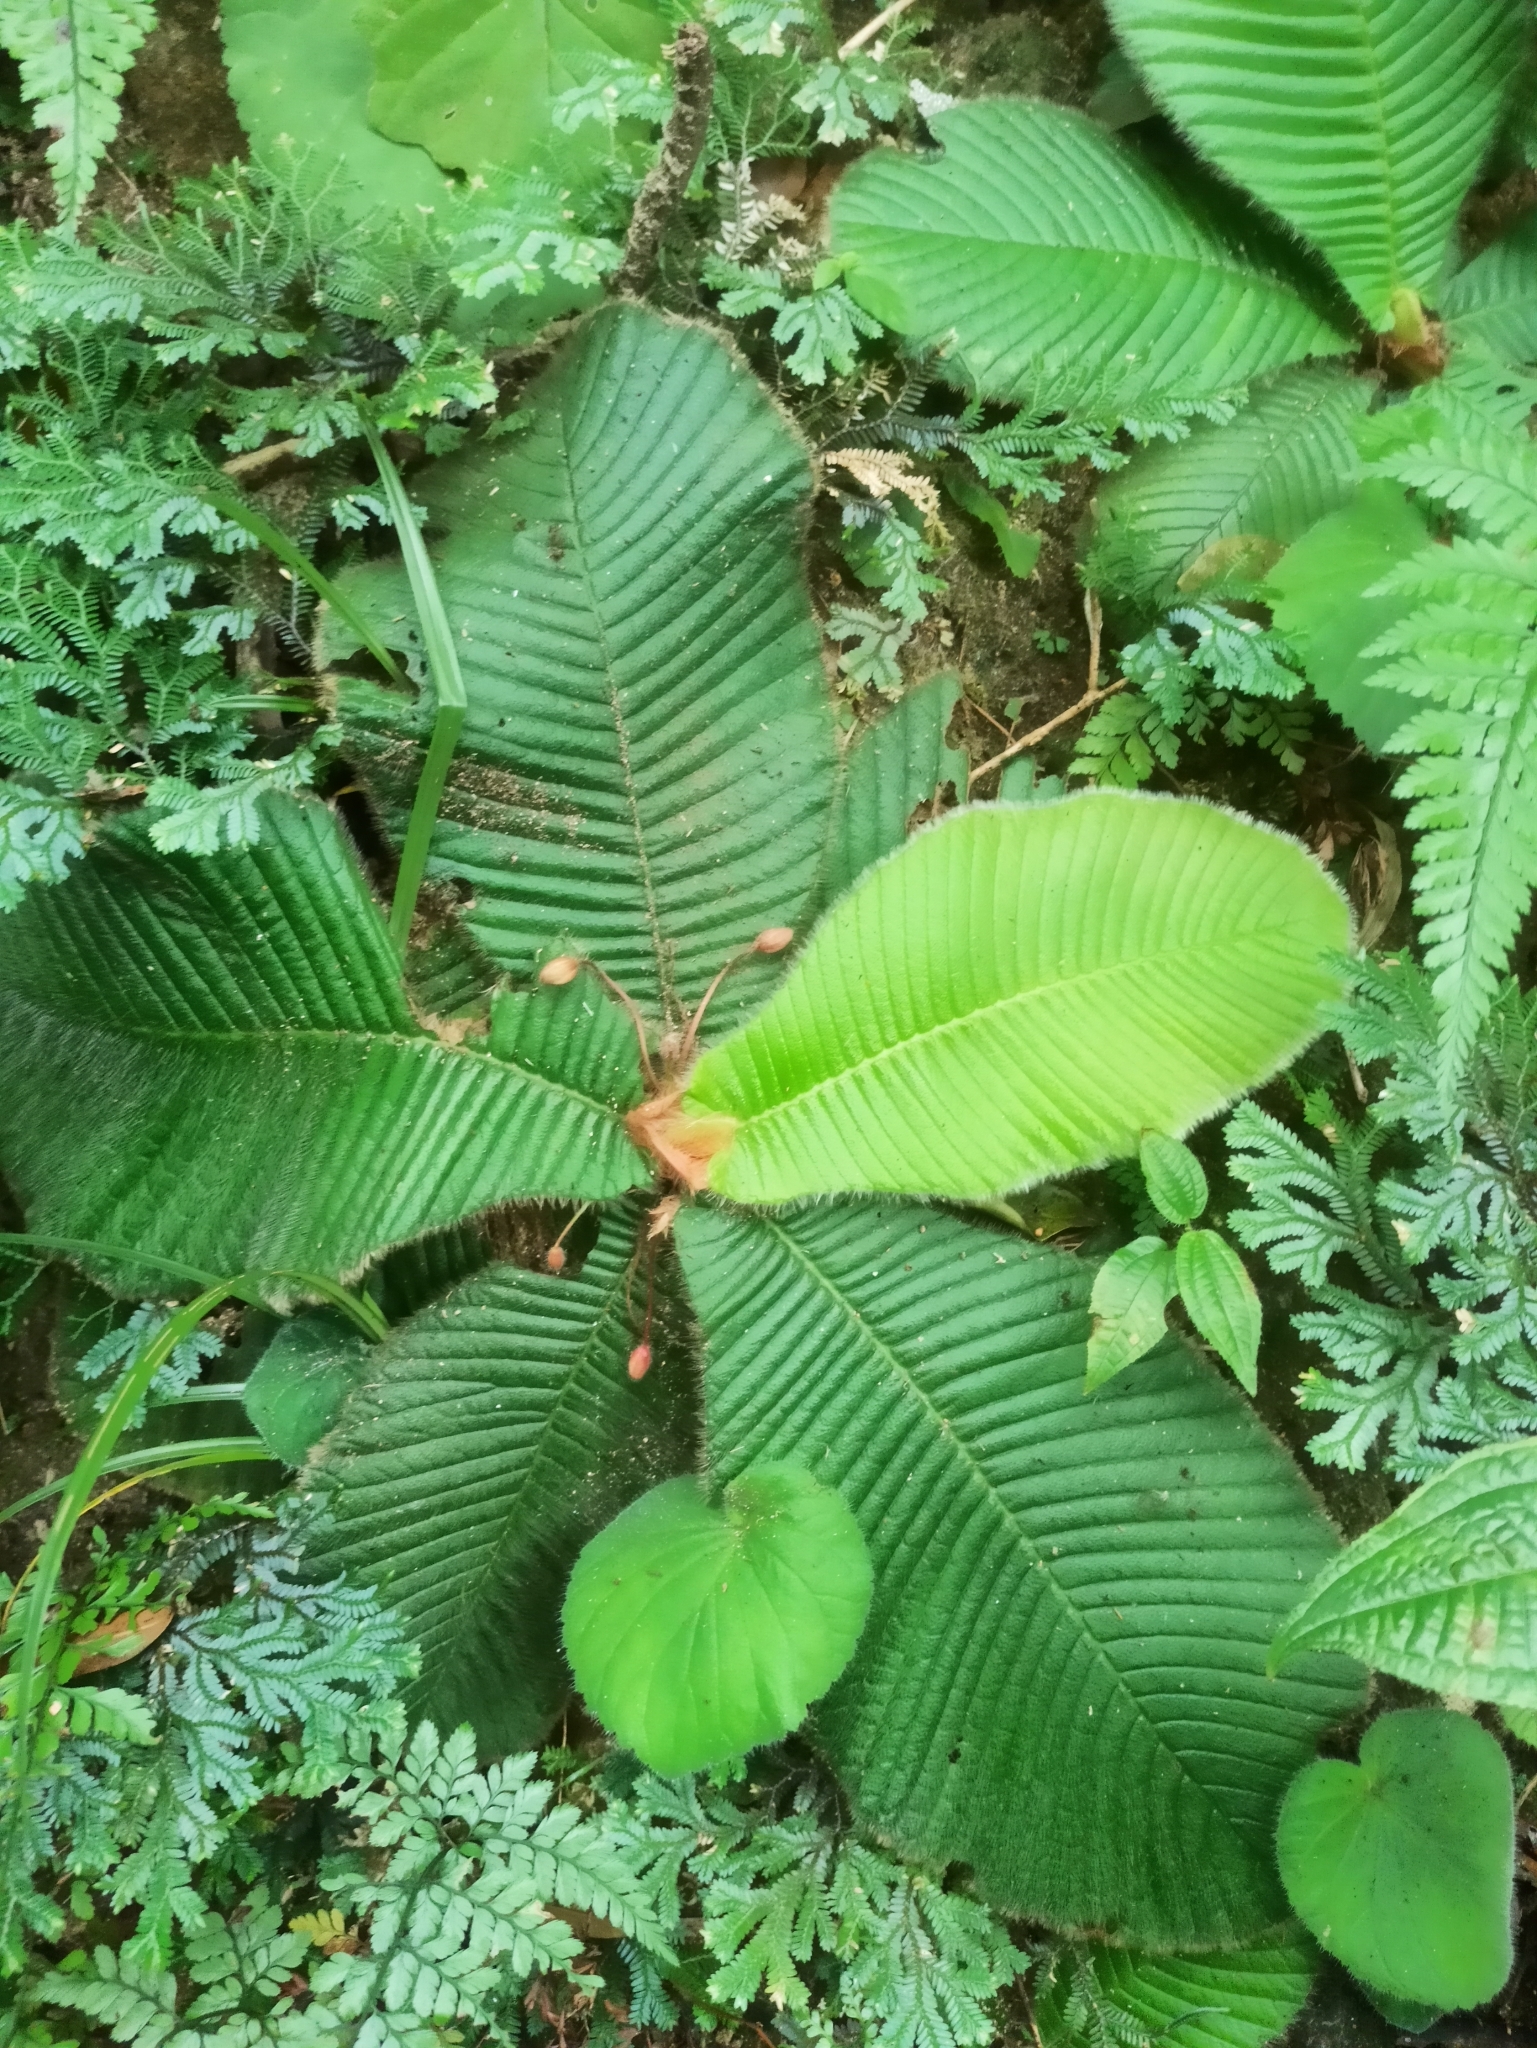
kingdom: Plantae
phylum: Tracheophyta
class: Magnoliopsida
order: Dilleniales
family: Dilleniaceae
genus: Acrotrema
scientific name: Acrotrema arnottianum
